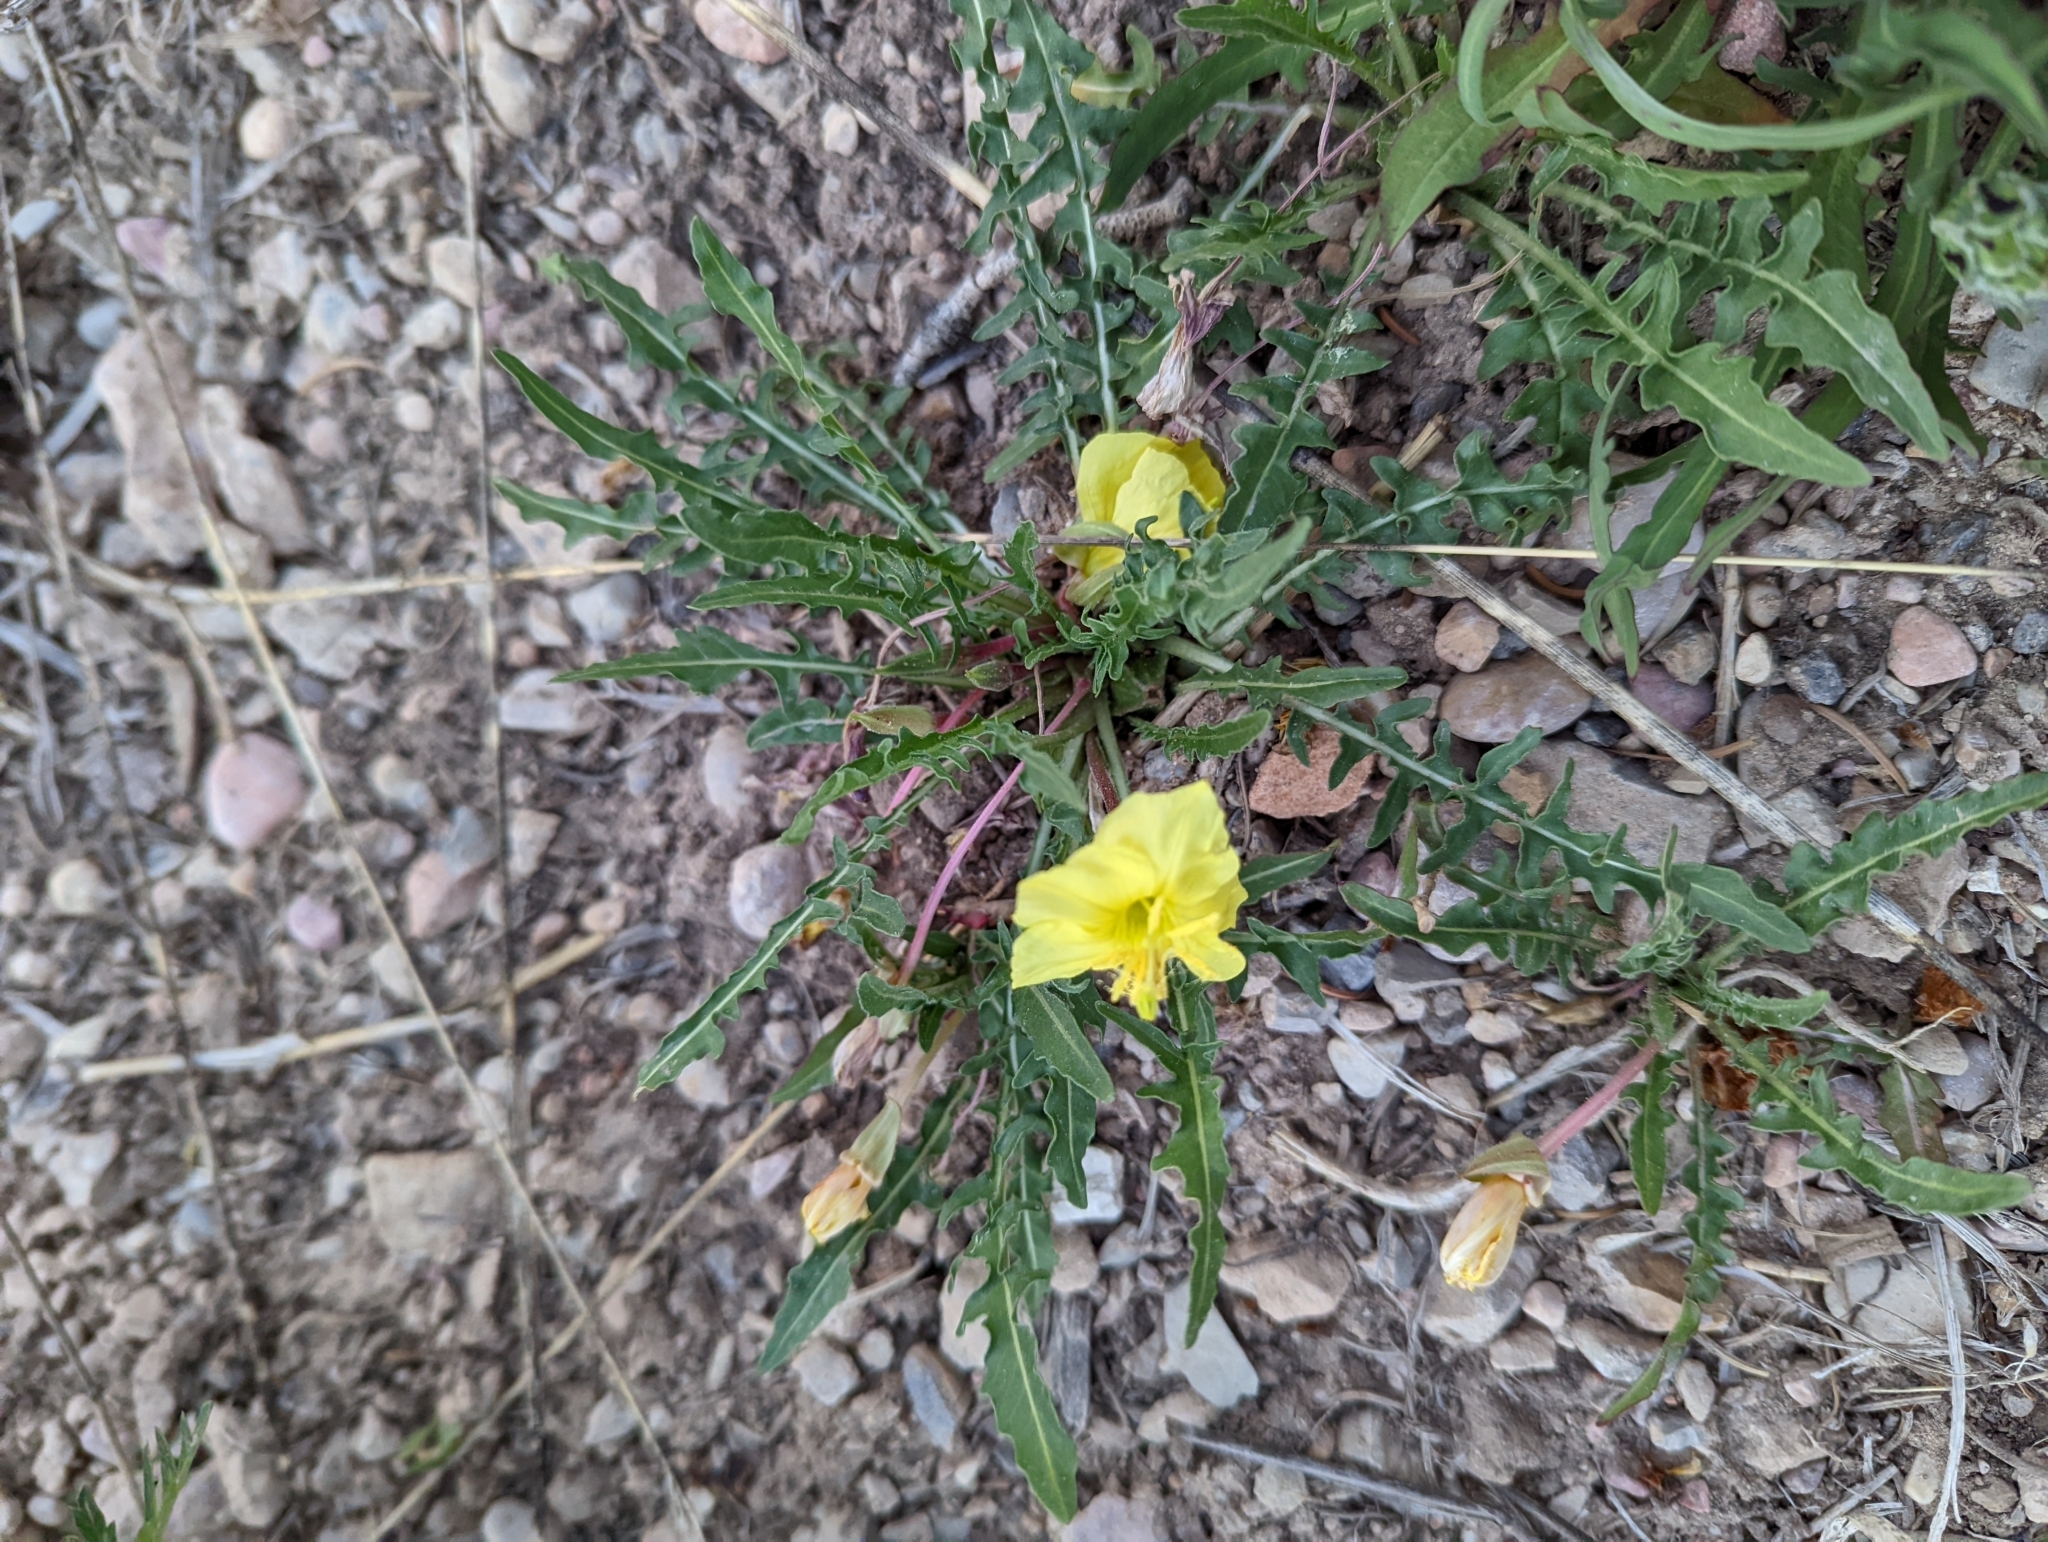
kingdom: Plantae
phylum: Tracheophyta
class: Magnoliopsida
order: Myrtales
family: Onagraceae
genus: Oenothera
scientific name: Oenothera flava
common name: Long-tubed evening-primrose
